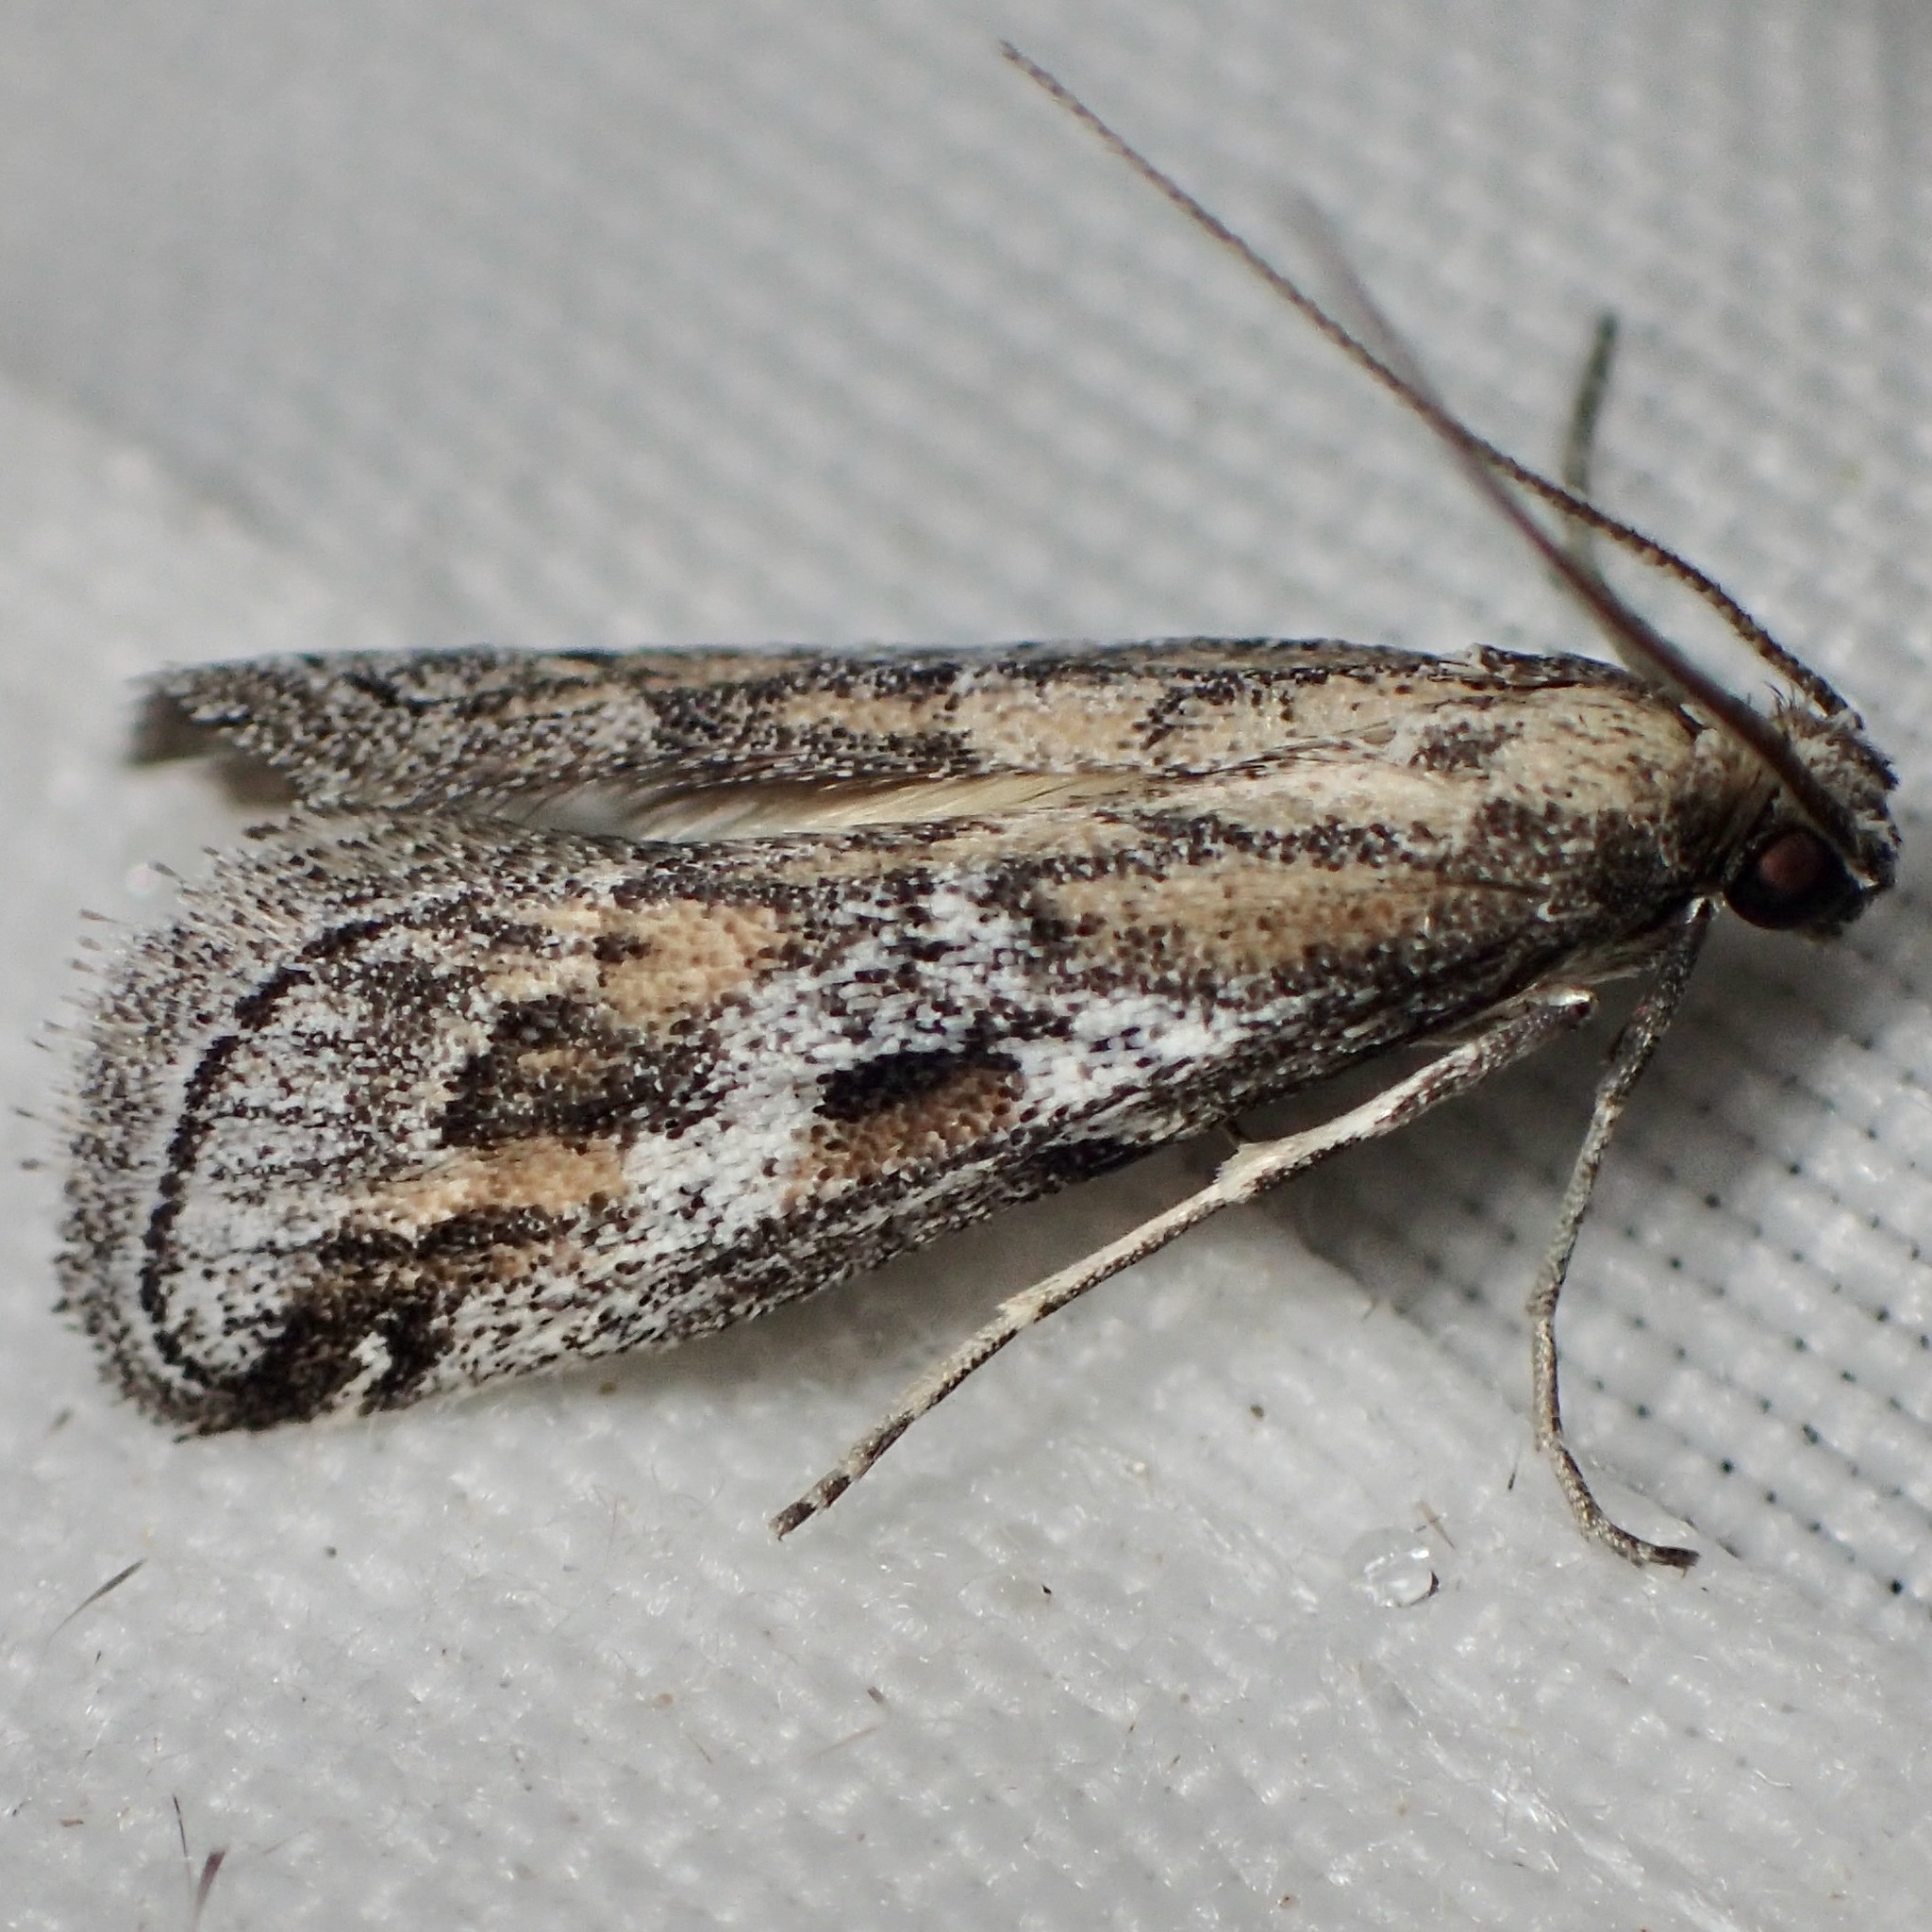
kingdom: Animalia
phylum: Arthropoda
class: Insecta
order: Lepidoptera
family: Pyralidae
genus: Alpheias
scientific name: Alpheias Decaturia pectinalis
